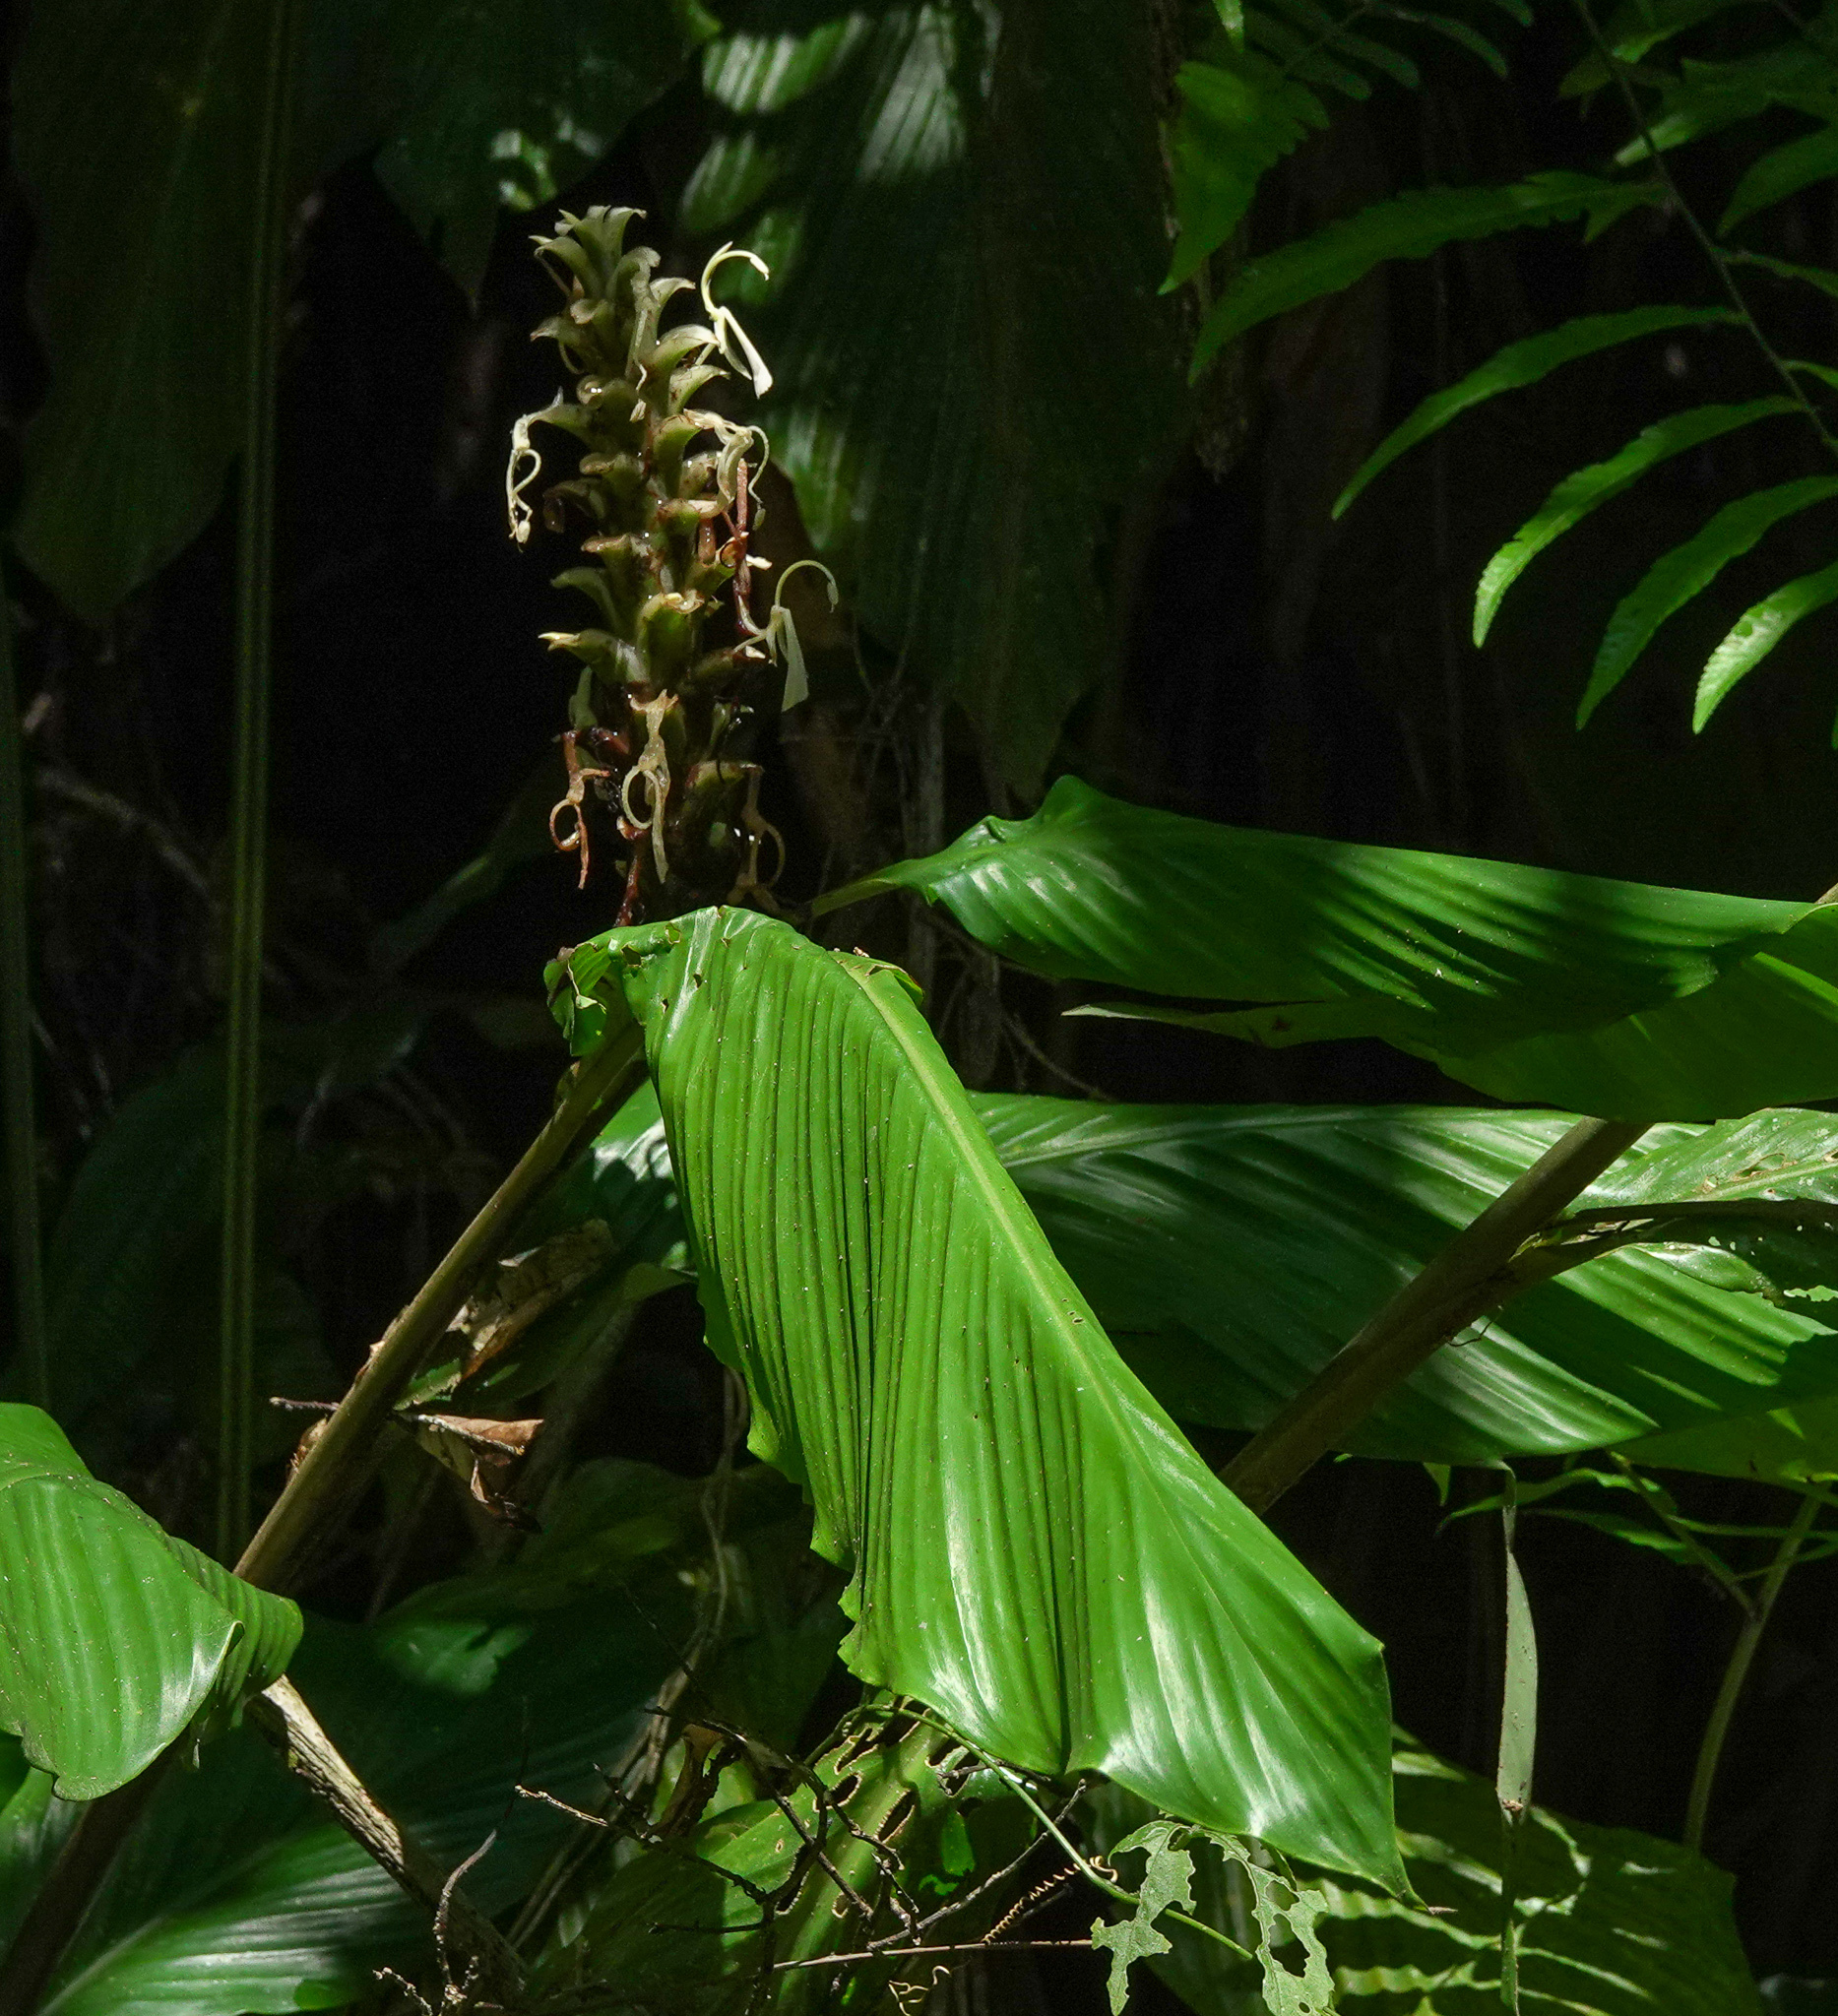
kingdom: Plantae
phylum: Tracheophyta
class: Liliopsida
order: Zingiberales
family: Zingiberaceae
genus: Larsenianthus
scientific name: Larsenianthus careyanus
